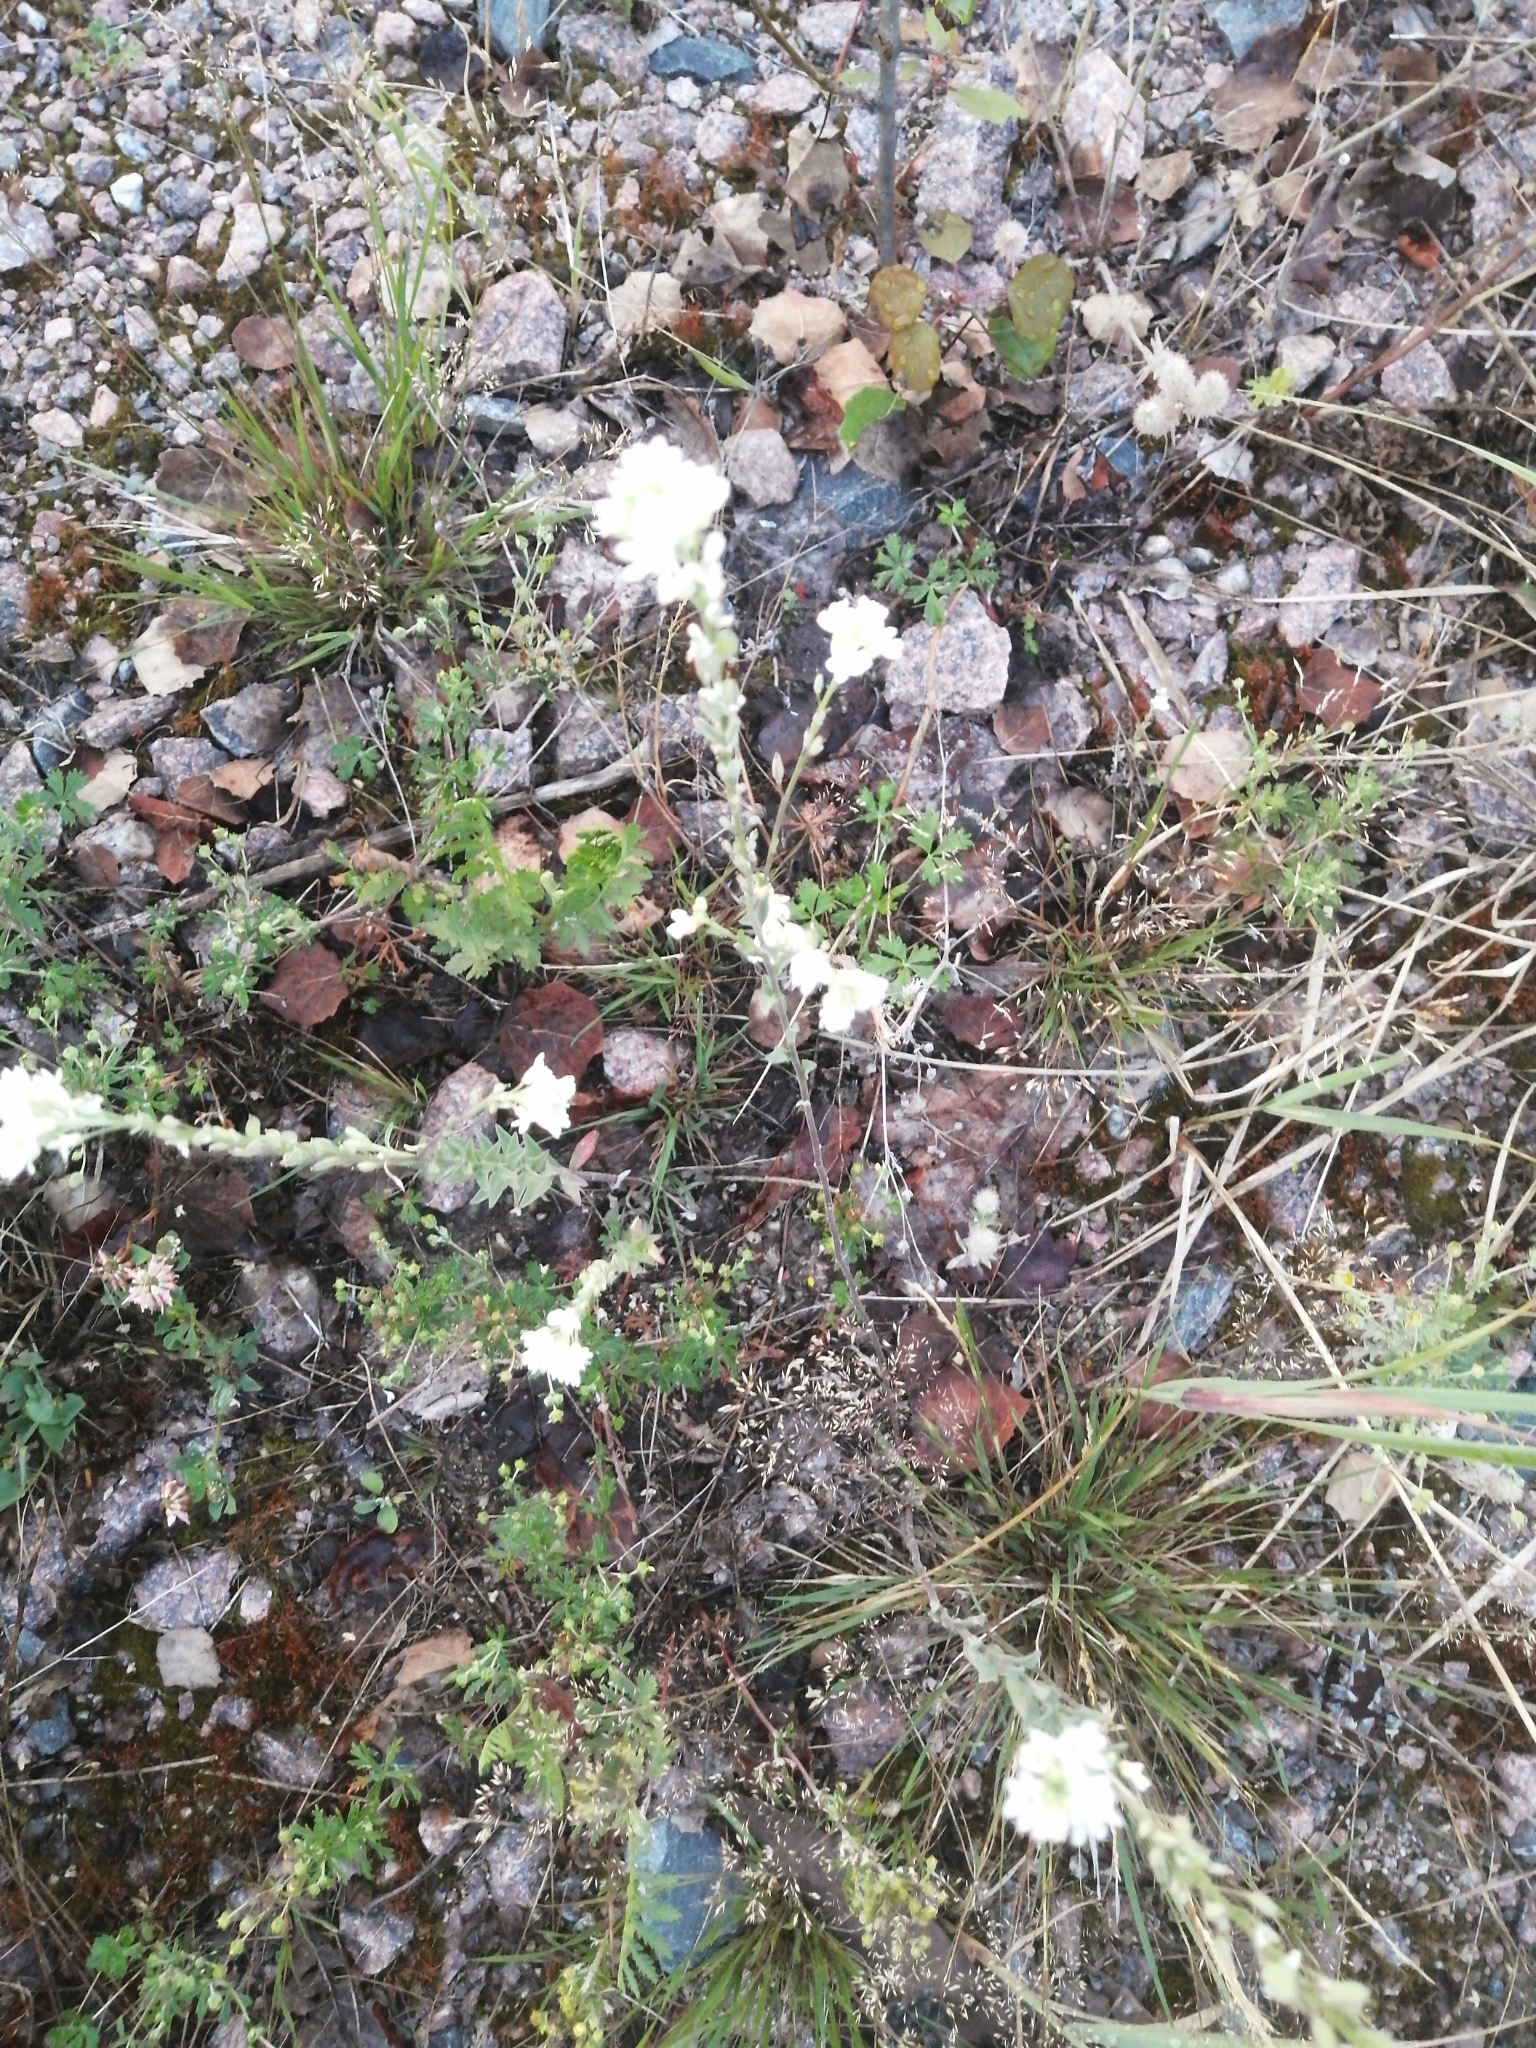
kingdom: Plantae
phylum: Tracheophyta
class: Magnoliopsida
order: Brassicales
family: Brassicaceae
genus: Berteroa
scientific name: Berteroa incana
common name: Hoary alison
